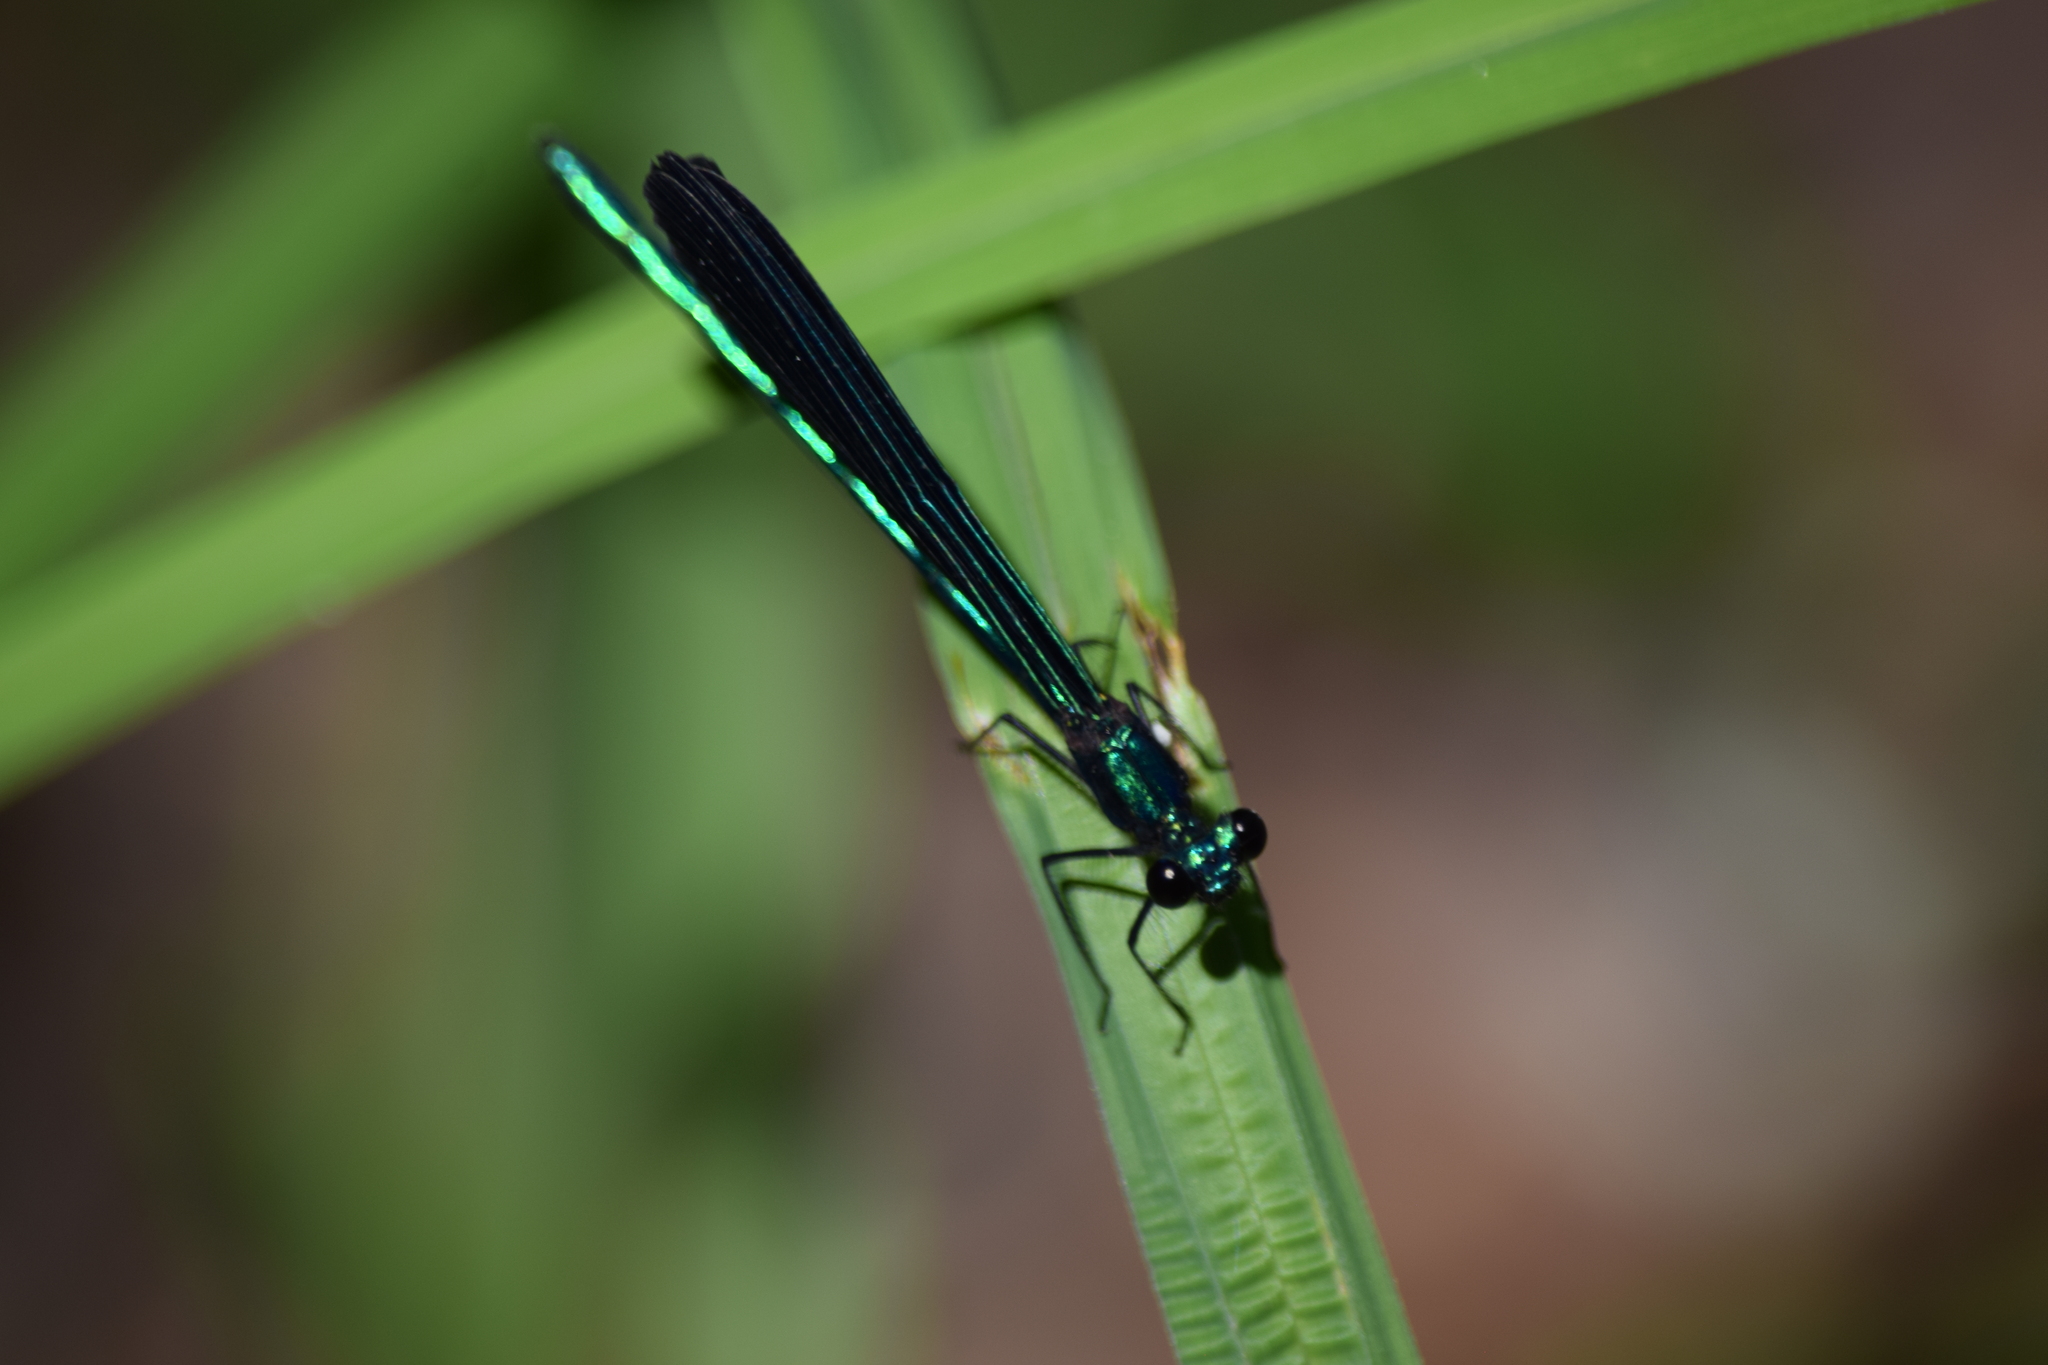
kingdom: Animalia
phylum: Arthropoda
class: Insecta
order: Odonata
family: Calopterygidae
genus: Calopteryx
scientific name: Calopteryx maculata
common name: Ebony jewelwing
